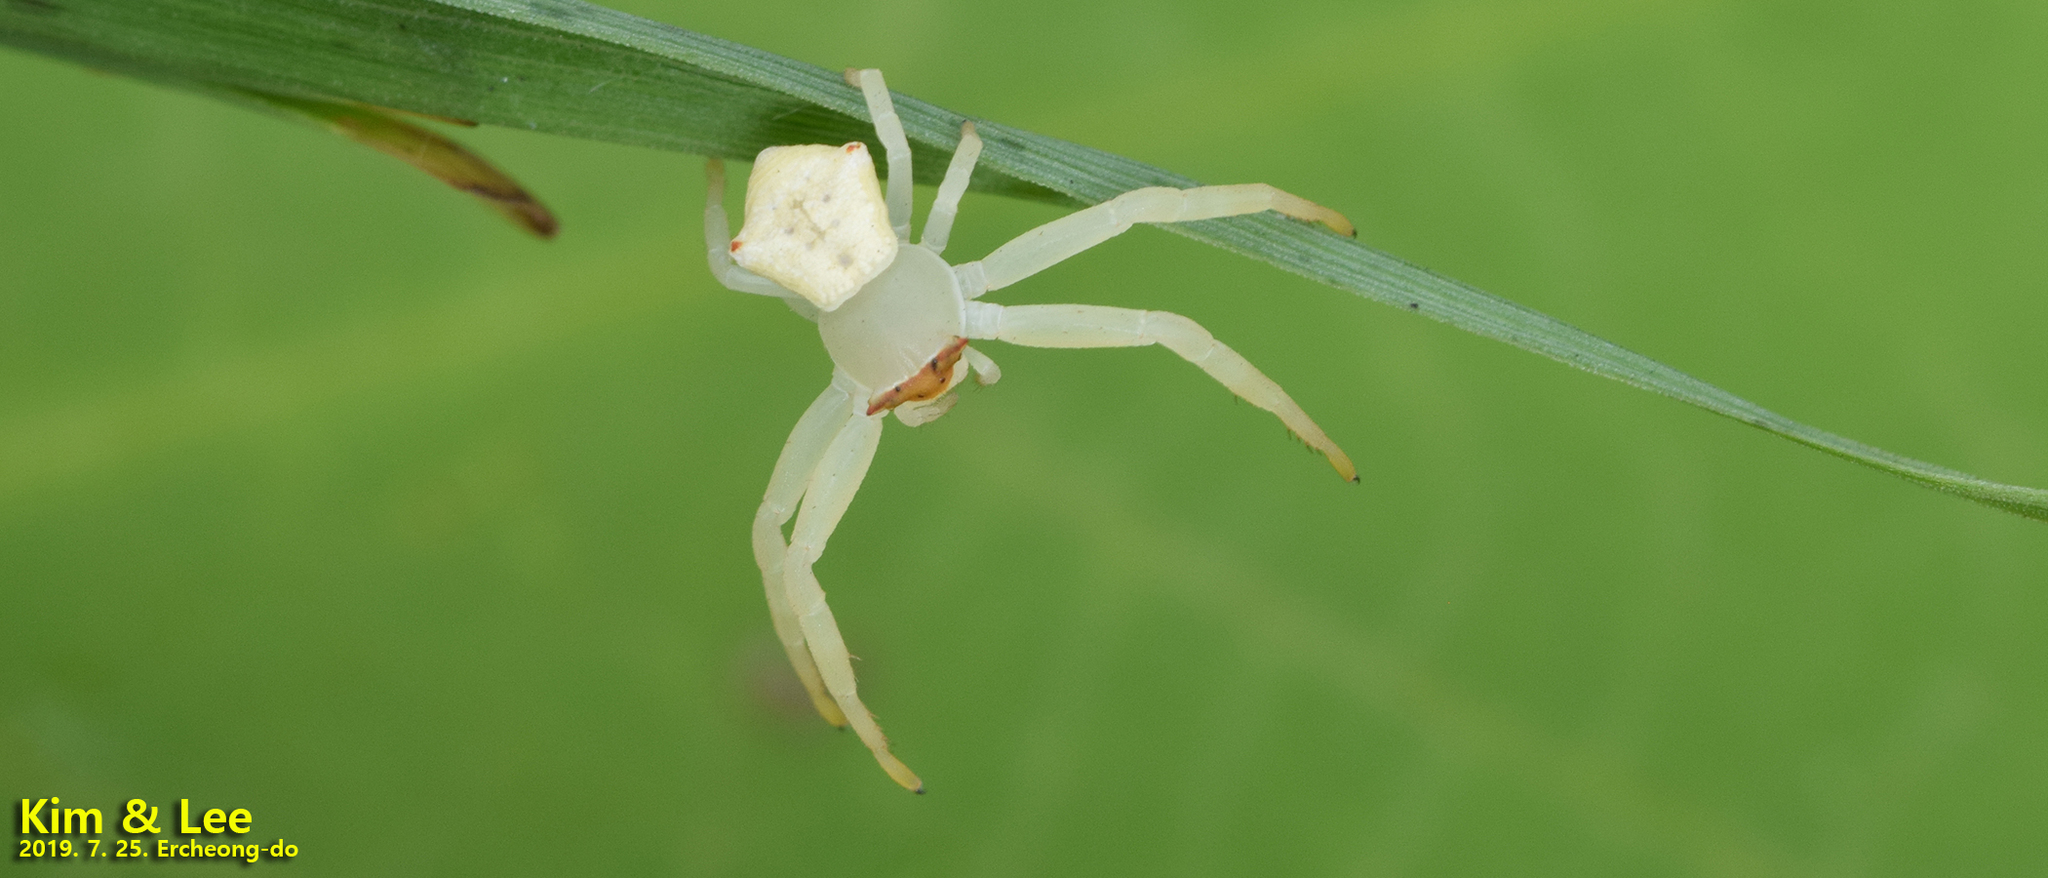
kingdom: Animalia
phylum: Arthropoda
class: Arachnida
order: Araneae
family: Thomisidae
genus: Thomisus
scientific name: Thomisus labefactus
